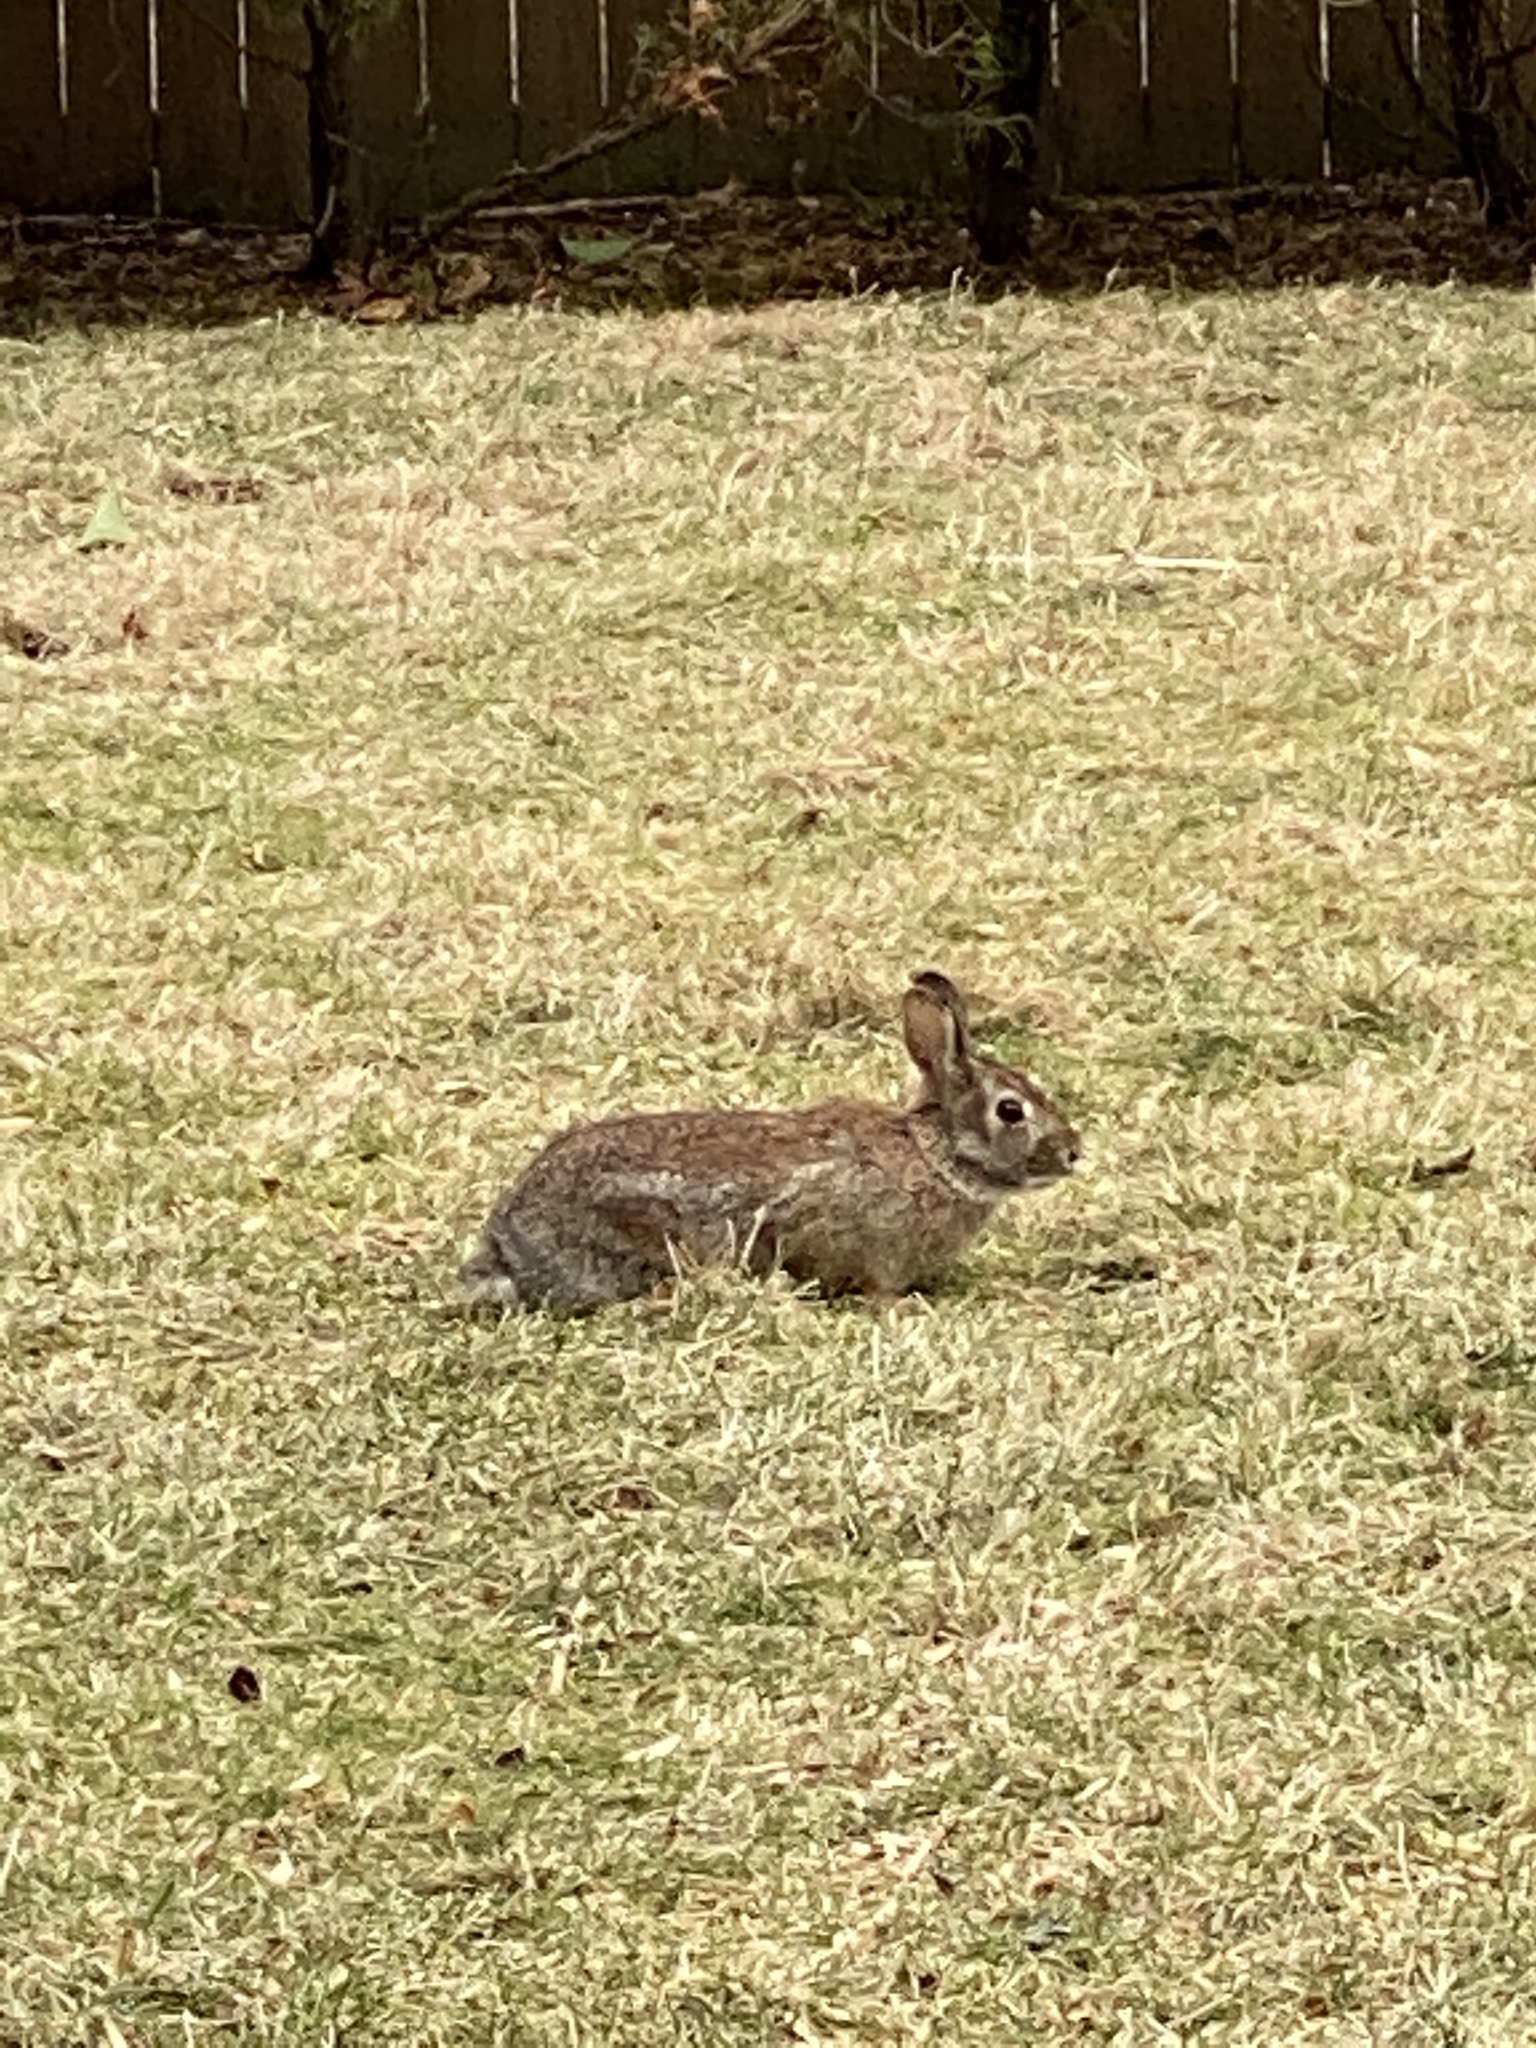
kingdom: Animalia
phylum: Chordata
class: Mammalia
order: Lagomorpha
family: Leporidae
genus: Sylvilagus
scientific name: Sylvilagus floridanus
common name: Eastern cottontail
